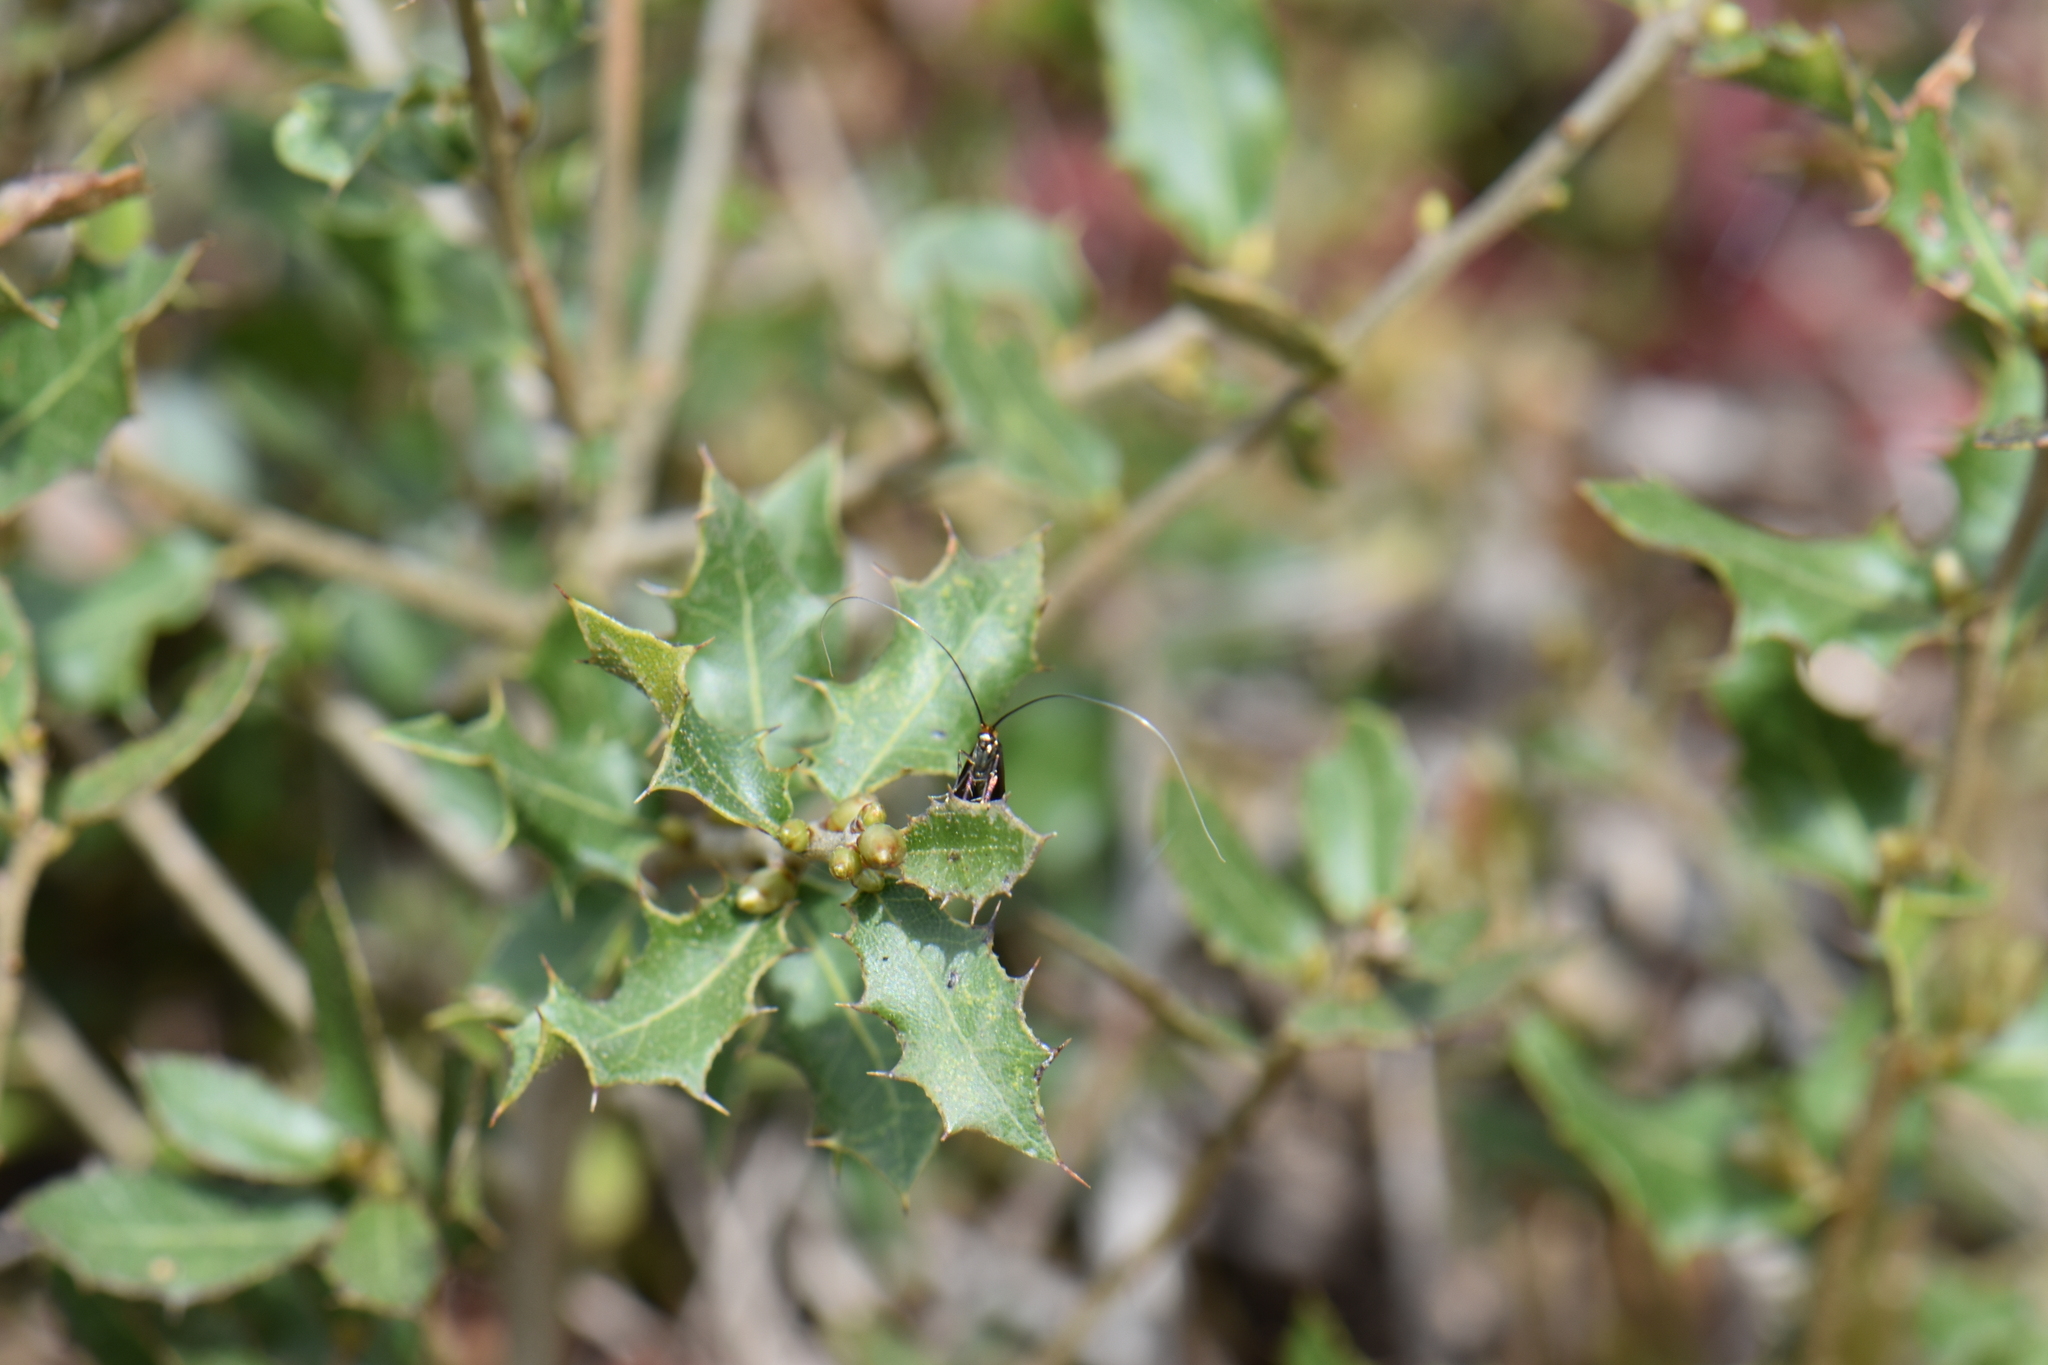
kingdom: Animalia
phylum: Arthropoda
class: Insecta
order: Lepidoptera
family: Adelidae
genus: Adela
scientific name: Adela australis
